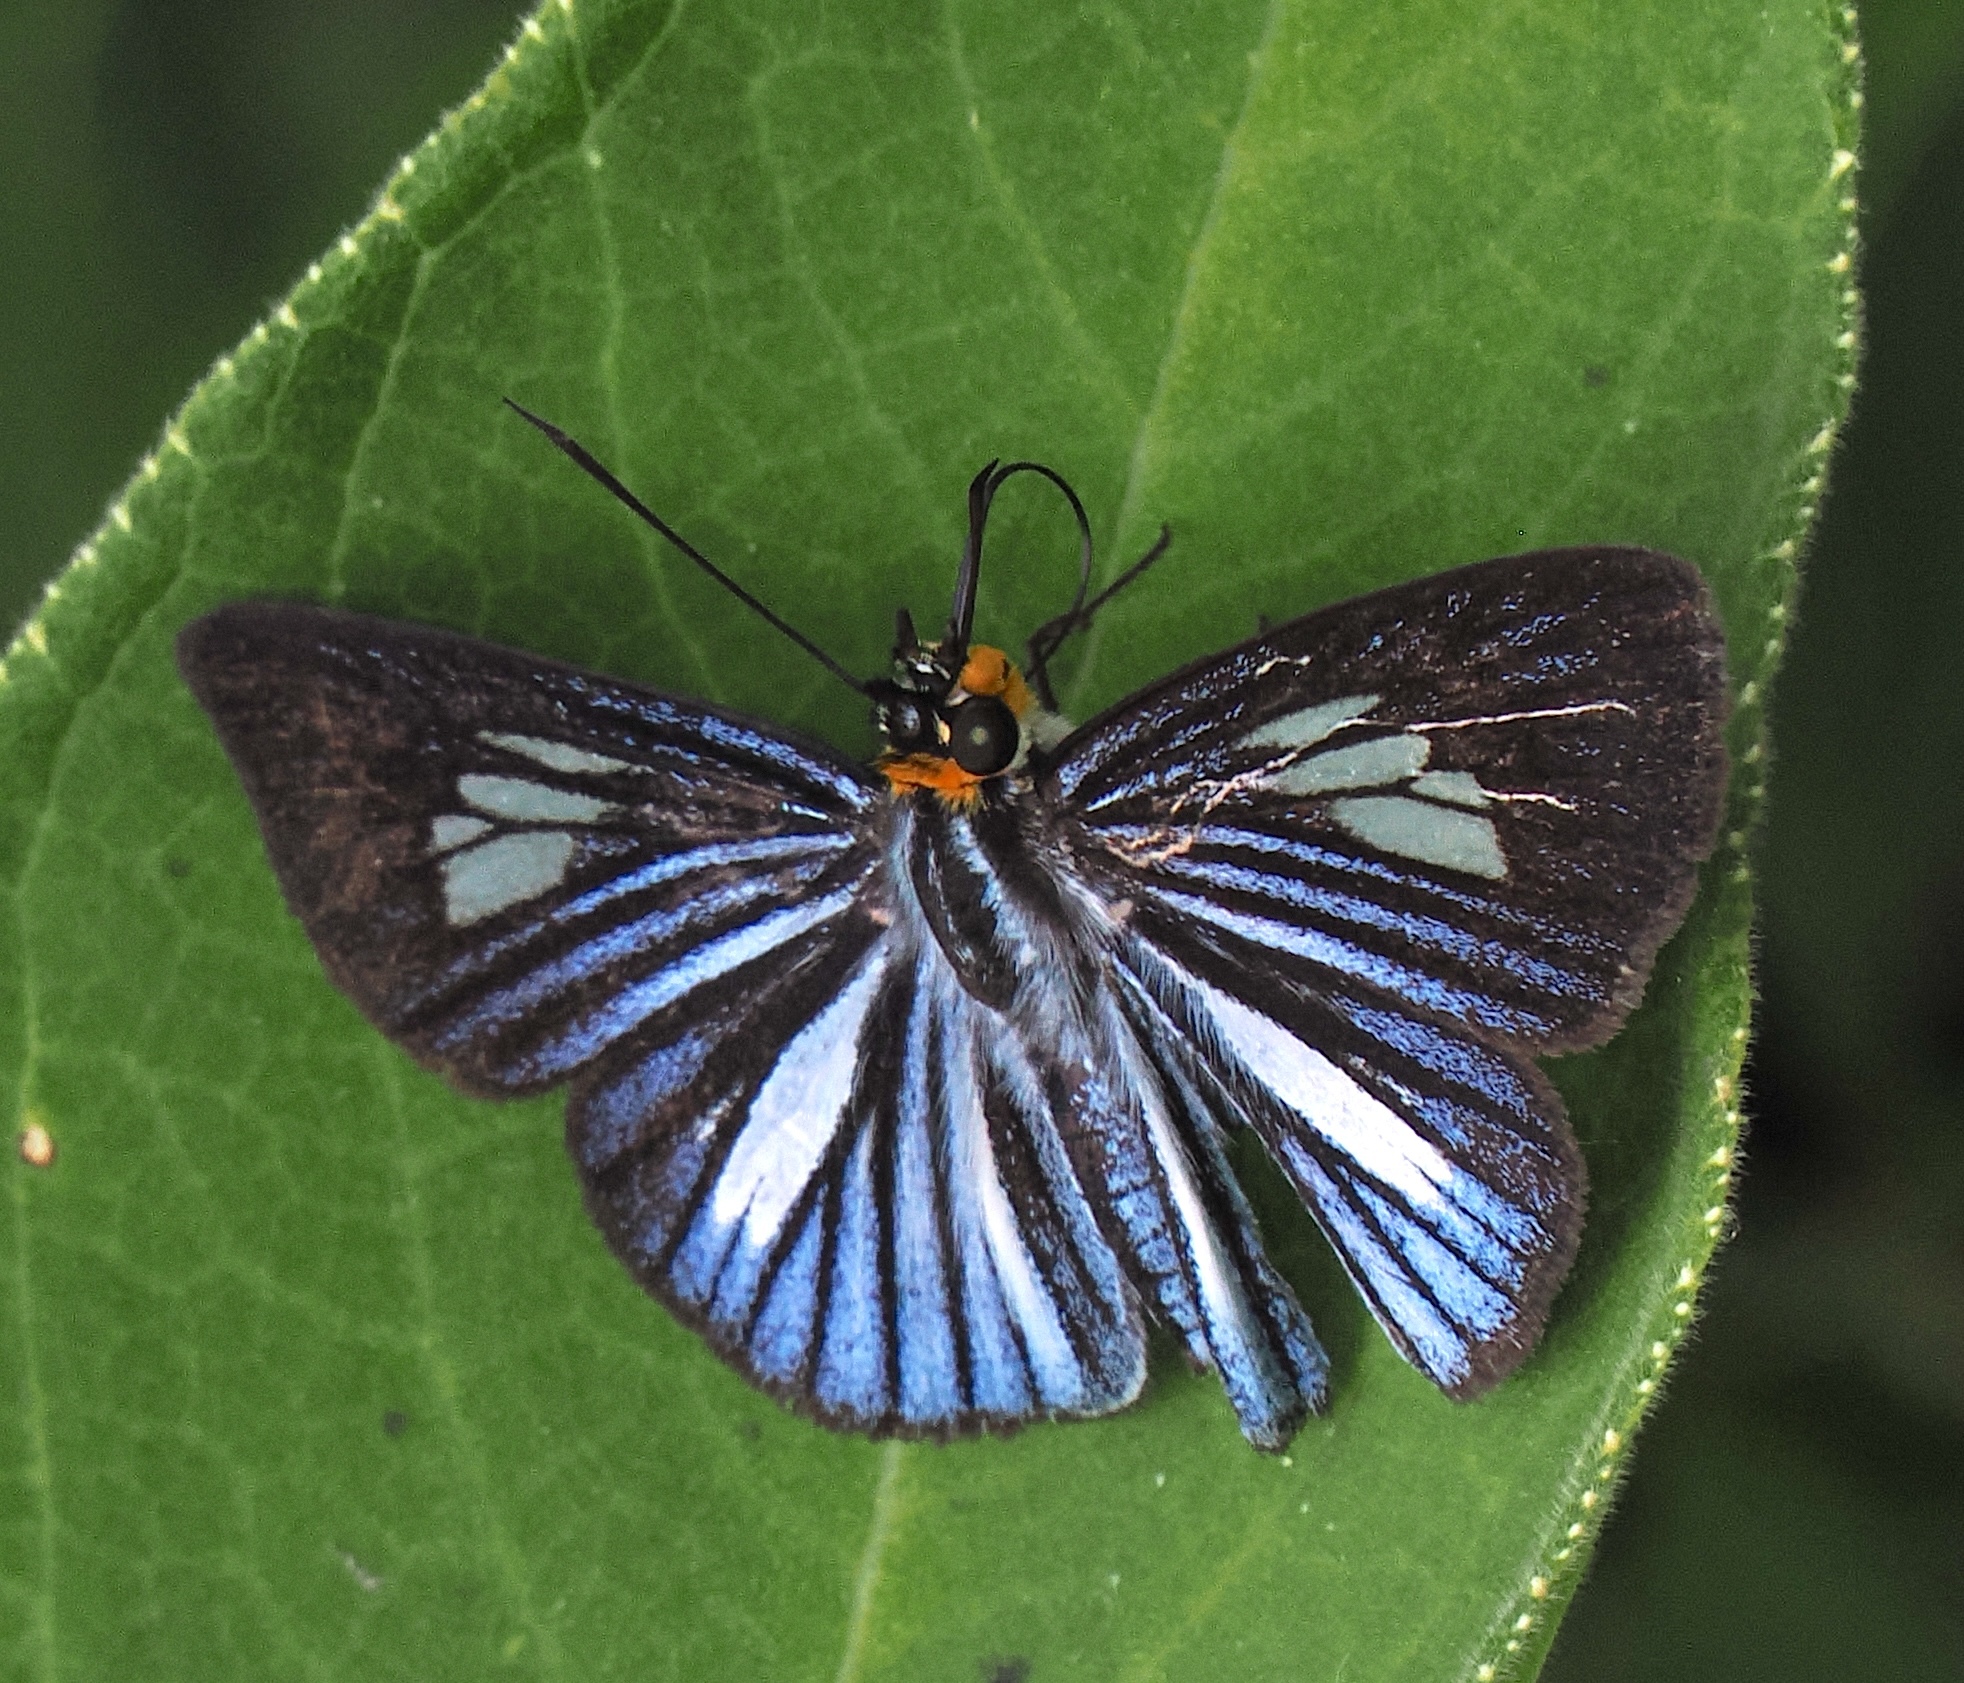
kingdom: Animalia
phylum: Arthropoda
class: Insecta
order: Lepidoptera
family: Hesperiidae
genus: Pythonides
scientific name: Pythonides lancea
